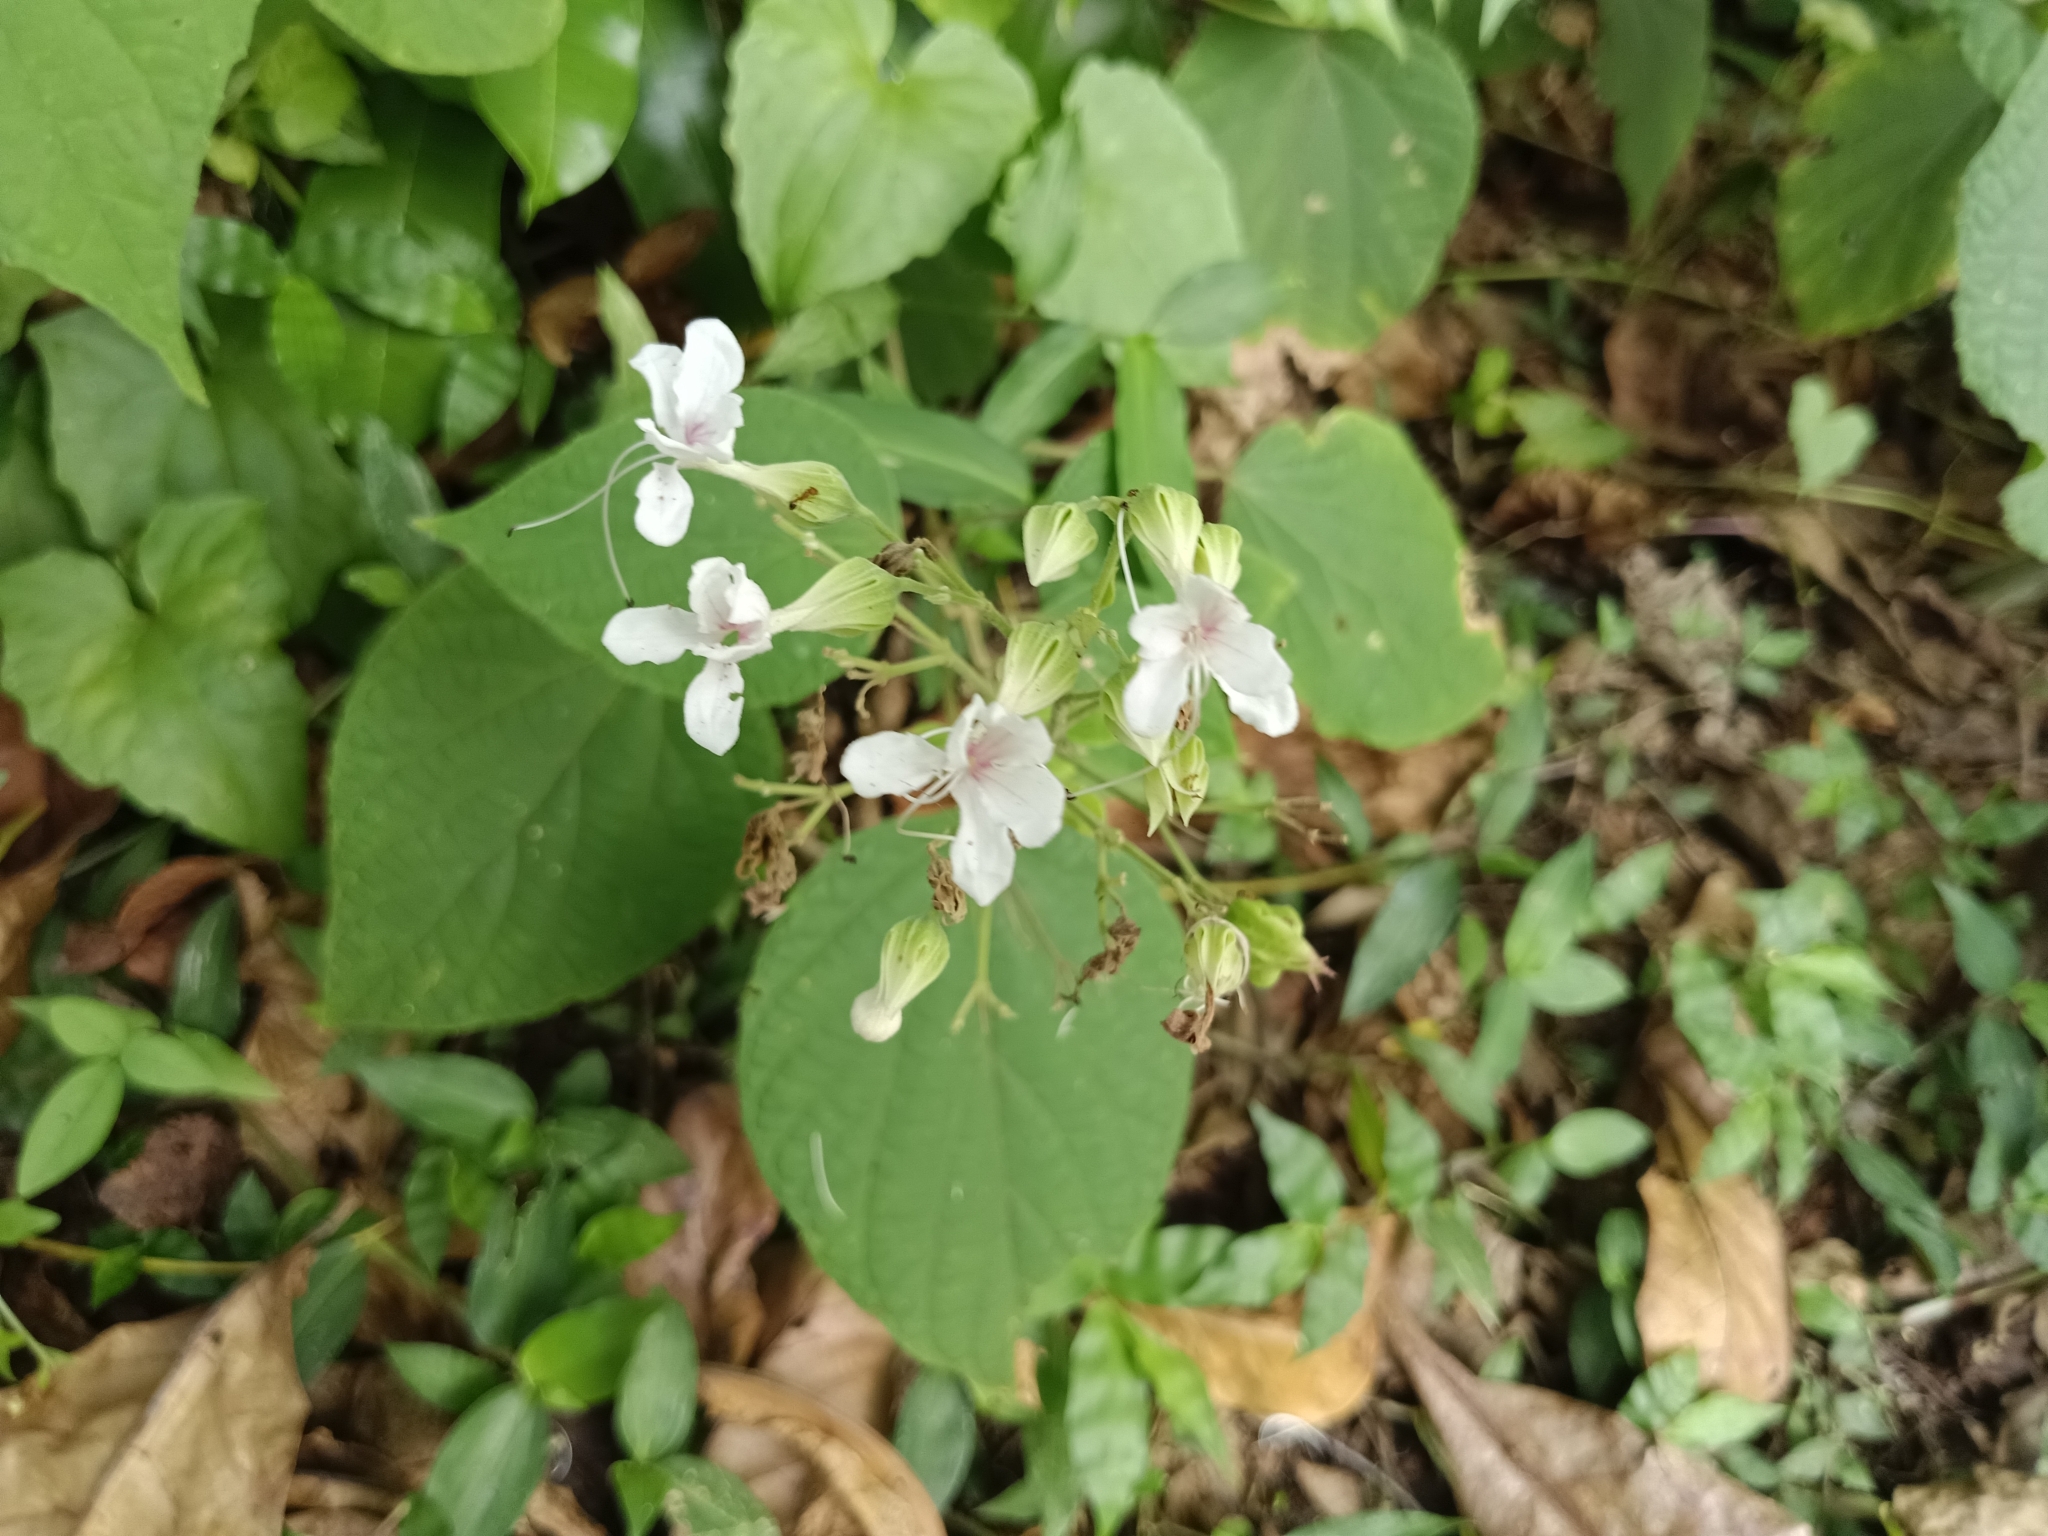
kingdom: Plantae
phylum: Tracheophyta
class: Magnoliopsida
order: Lamiales
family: Lamiaceae
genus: Clerodendrum
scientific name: Clerodendrum infortunatum
